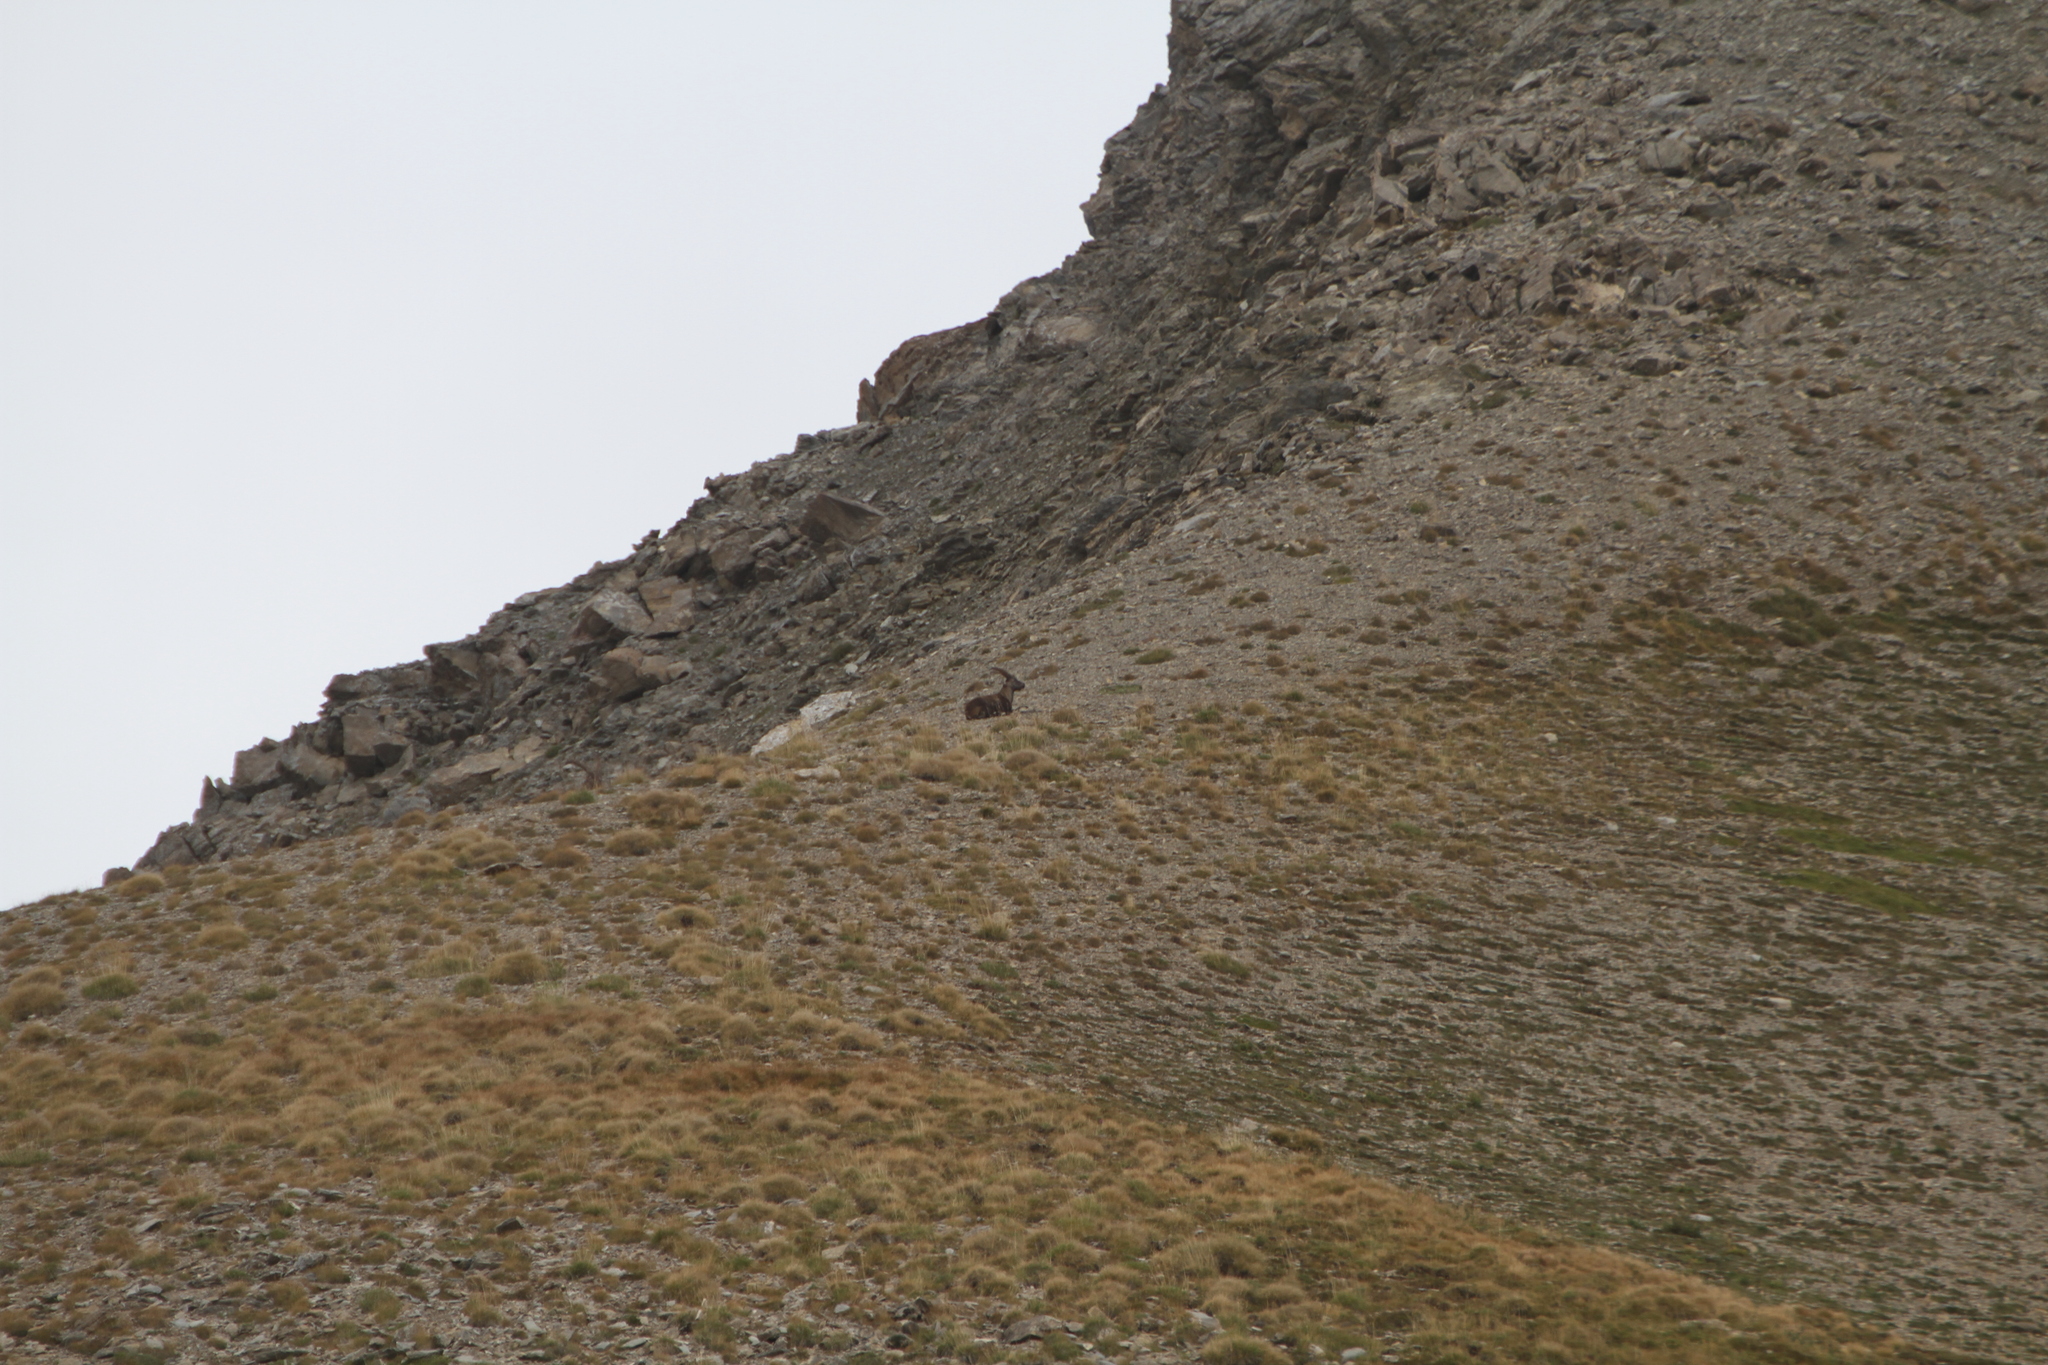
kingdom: Animalia
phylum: Chordata
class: Mammalia
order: Artiodactyla
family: Bovidae
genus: Capra
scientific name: Capra ibex
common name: Alpine ibex
